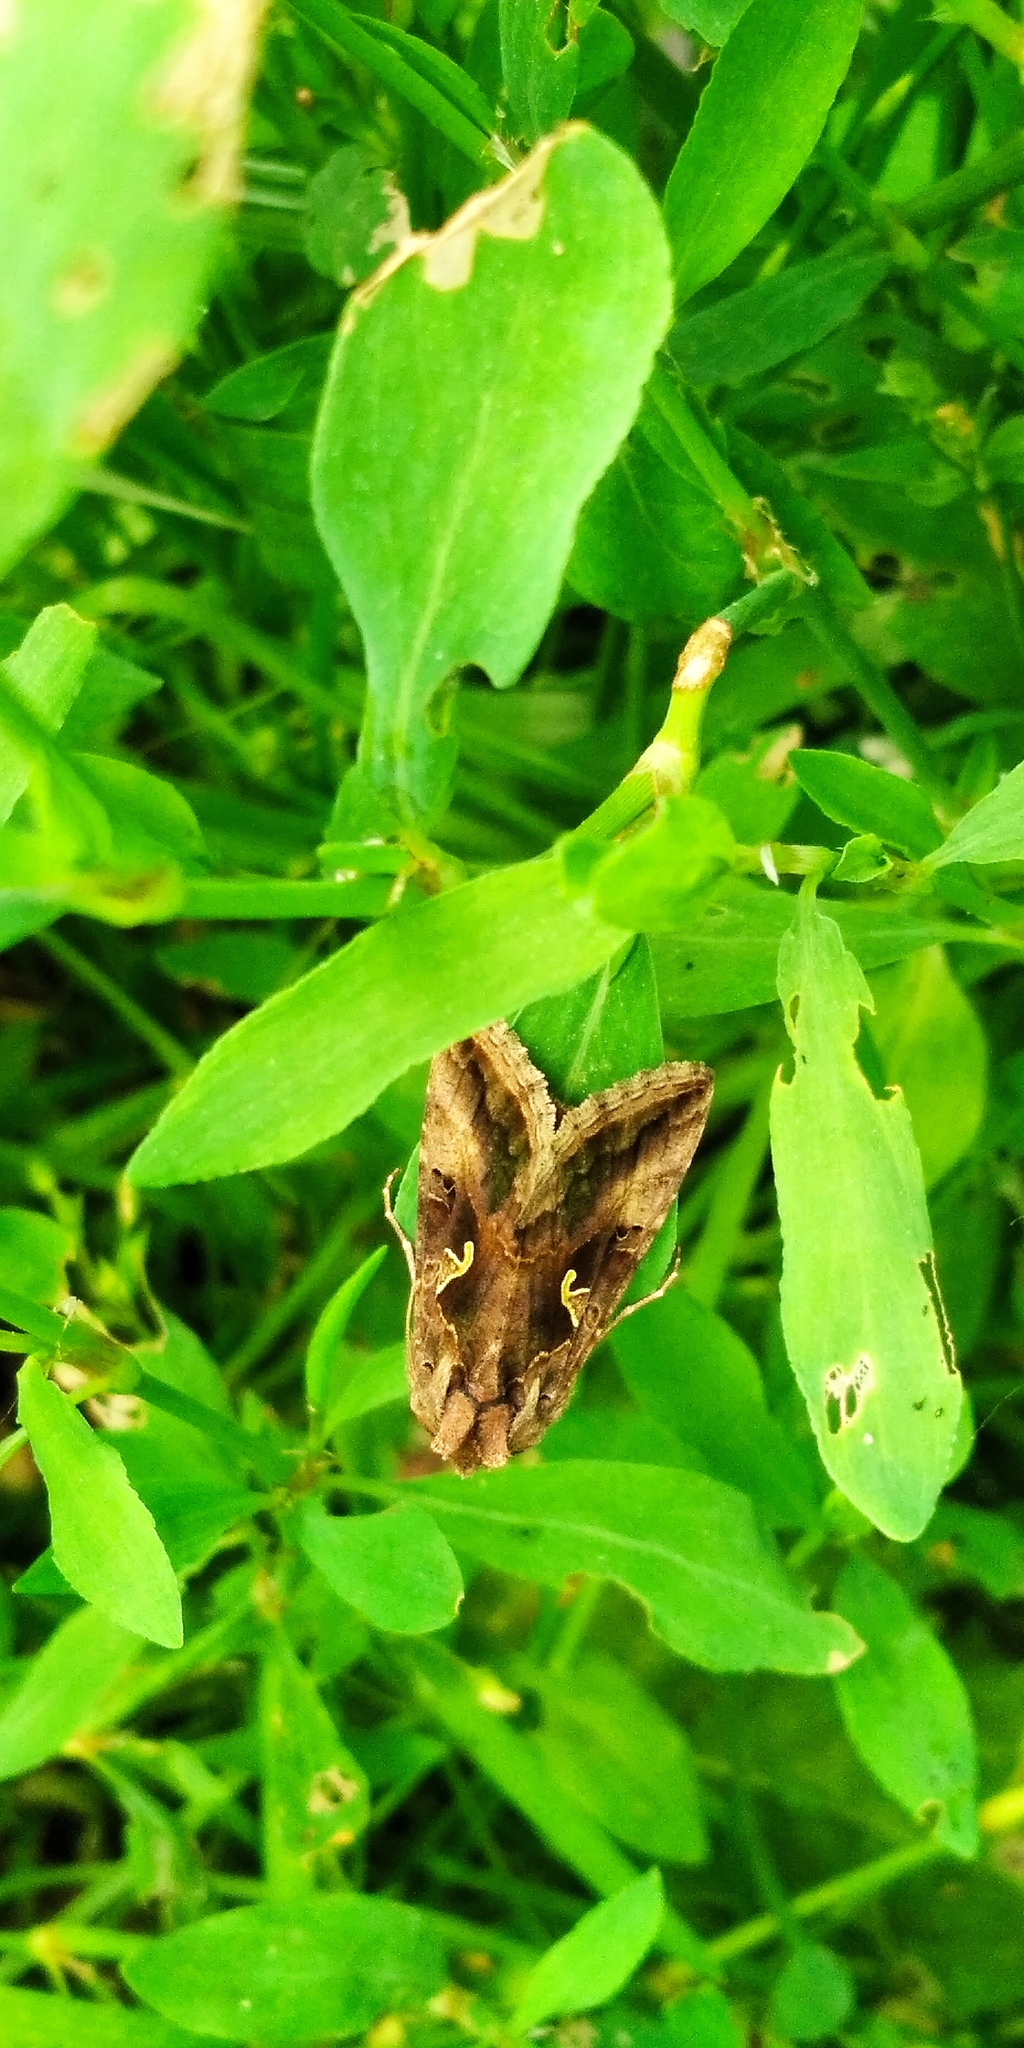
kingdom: Animalia
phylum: Arthropoda
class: Insecta
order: Lepidoptera
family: Noctuidae
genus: Autographa
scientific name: Autographa gamma
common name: Silver y
